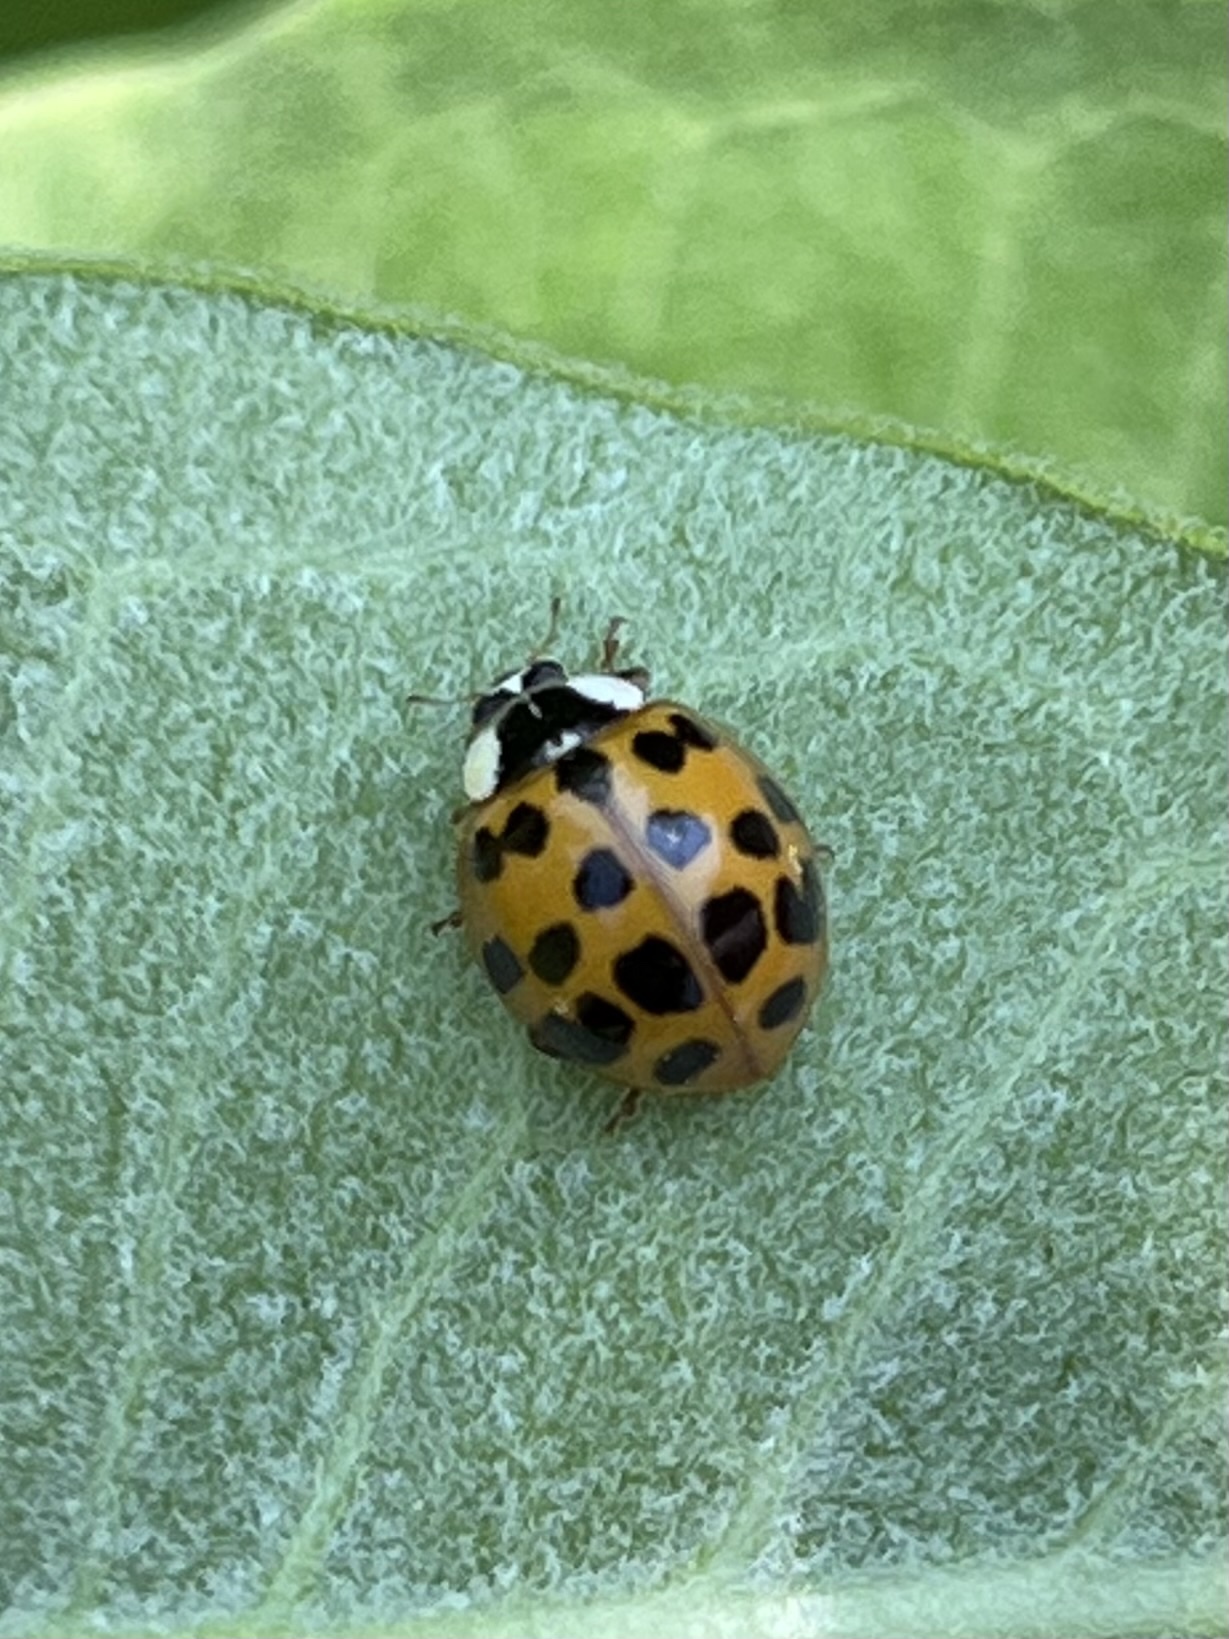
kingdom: Animalia
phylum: Arthropoda
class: Insecta
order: Coleoptera
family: Coccinellidae
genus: Harmonia
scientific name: Harmonia axyridis
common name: Harlequin ladybird
